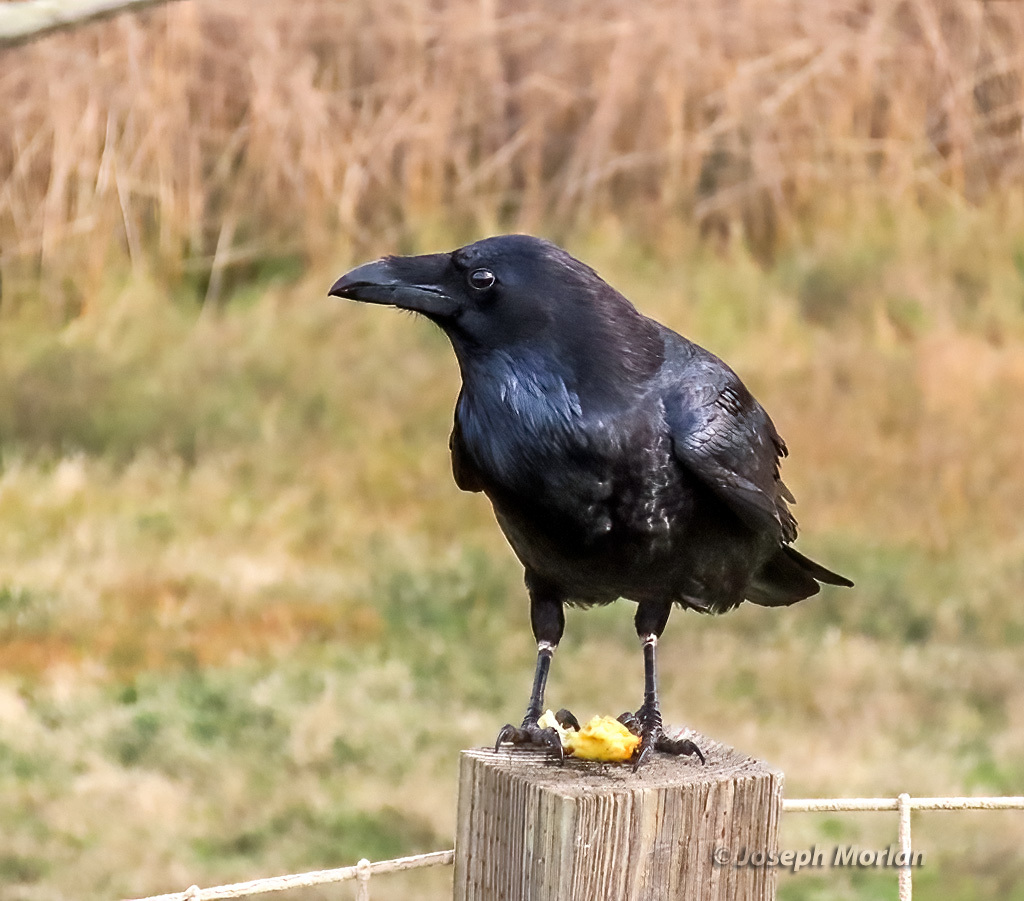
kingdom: Animalia
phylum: Chordata
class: Aves
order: Passeriformes
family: Corvidae
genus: Corvus
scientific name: Corvus corax
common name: Common raven
